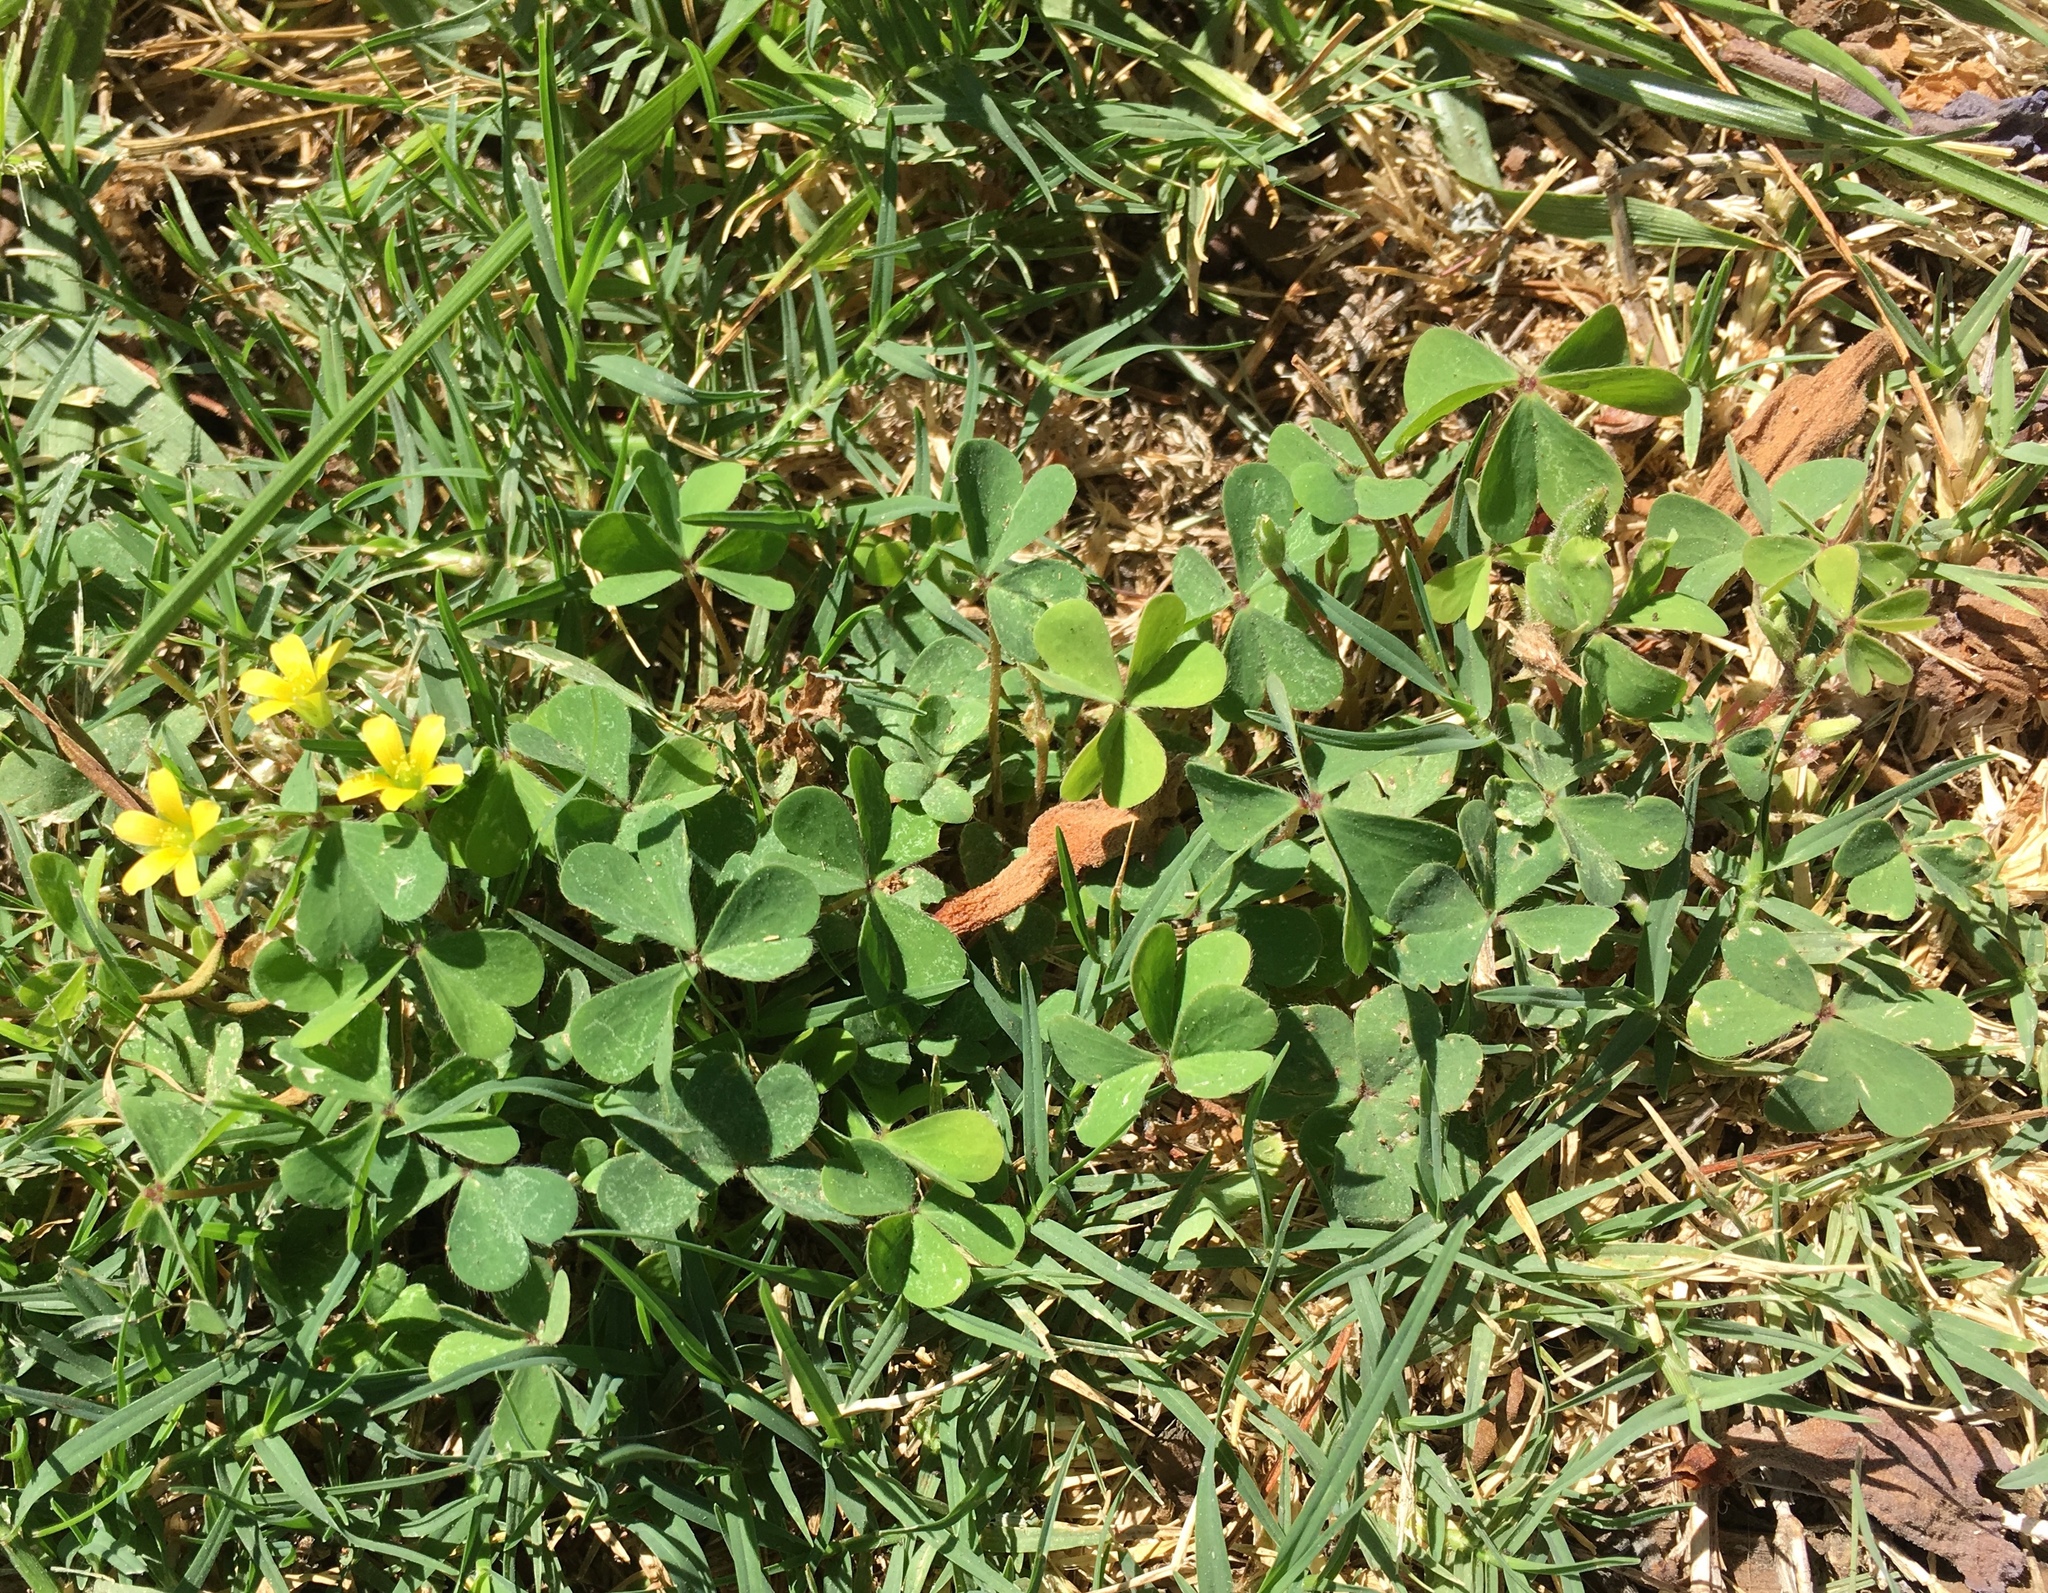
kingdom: Plantae
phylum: Tracheophyta
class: Magnoliopsida
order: Oxalidales
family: Oxalidaceae
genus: Oxalis
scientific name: Oxalis corniculata
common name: Procumbent yellow-sorrel
